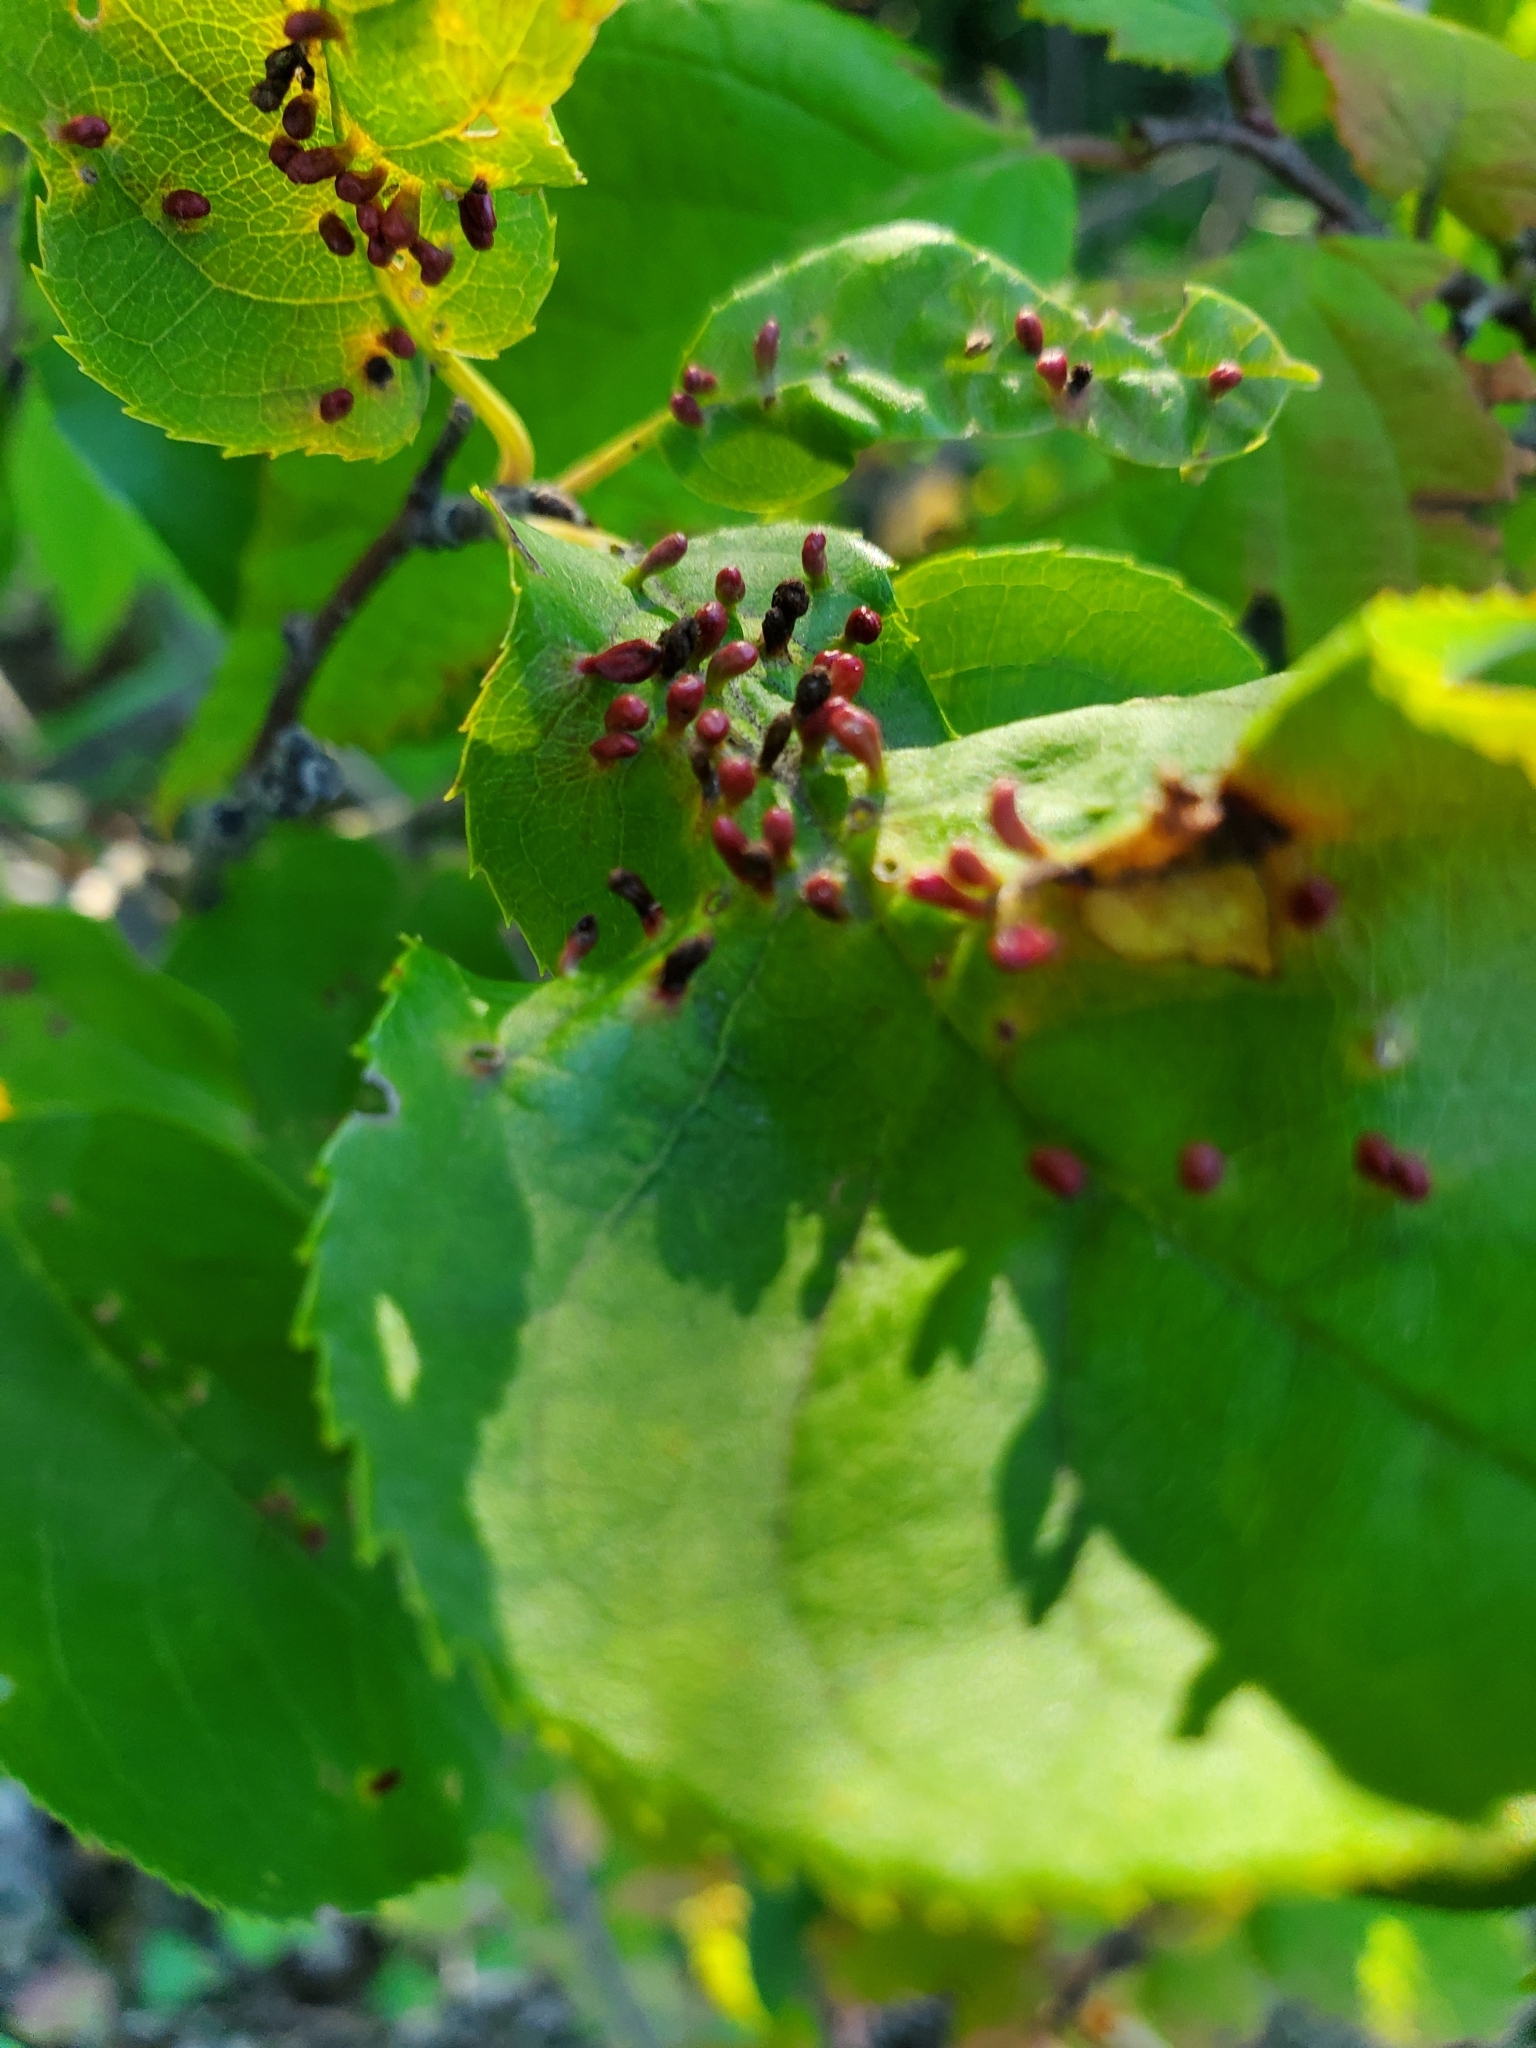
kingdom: Animalia
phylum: Arthropoda
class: Arachnida
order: Trombidiformes
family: Eriophyidae
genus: Eriophyes
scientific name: Eriophyes emarginatae
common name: Plum leaf gall mite
